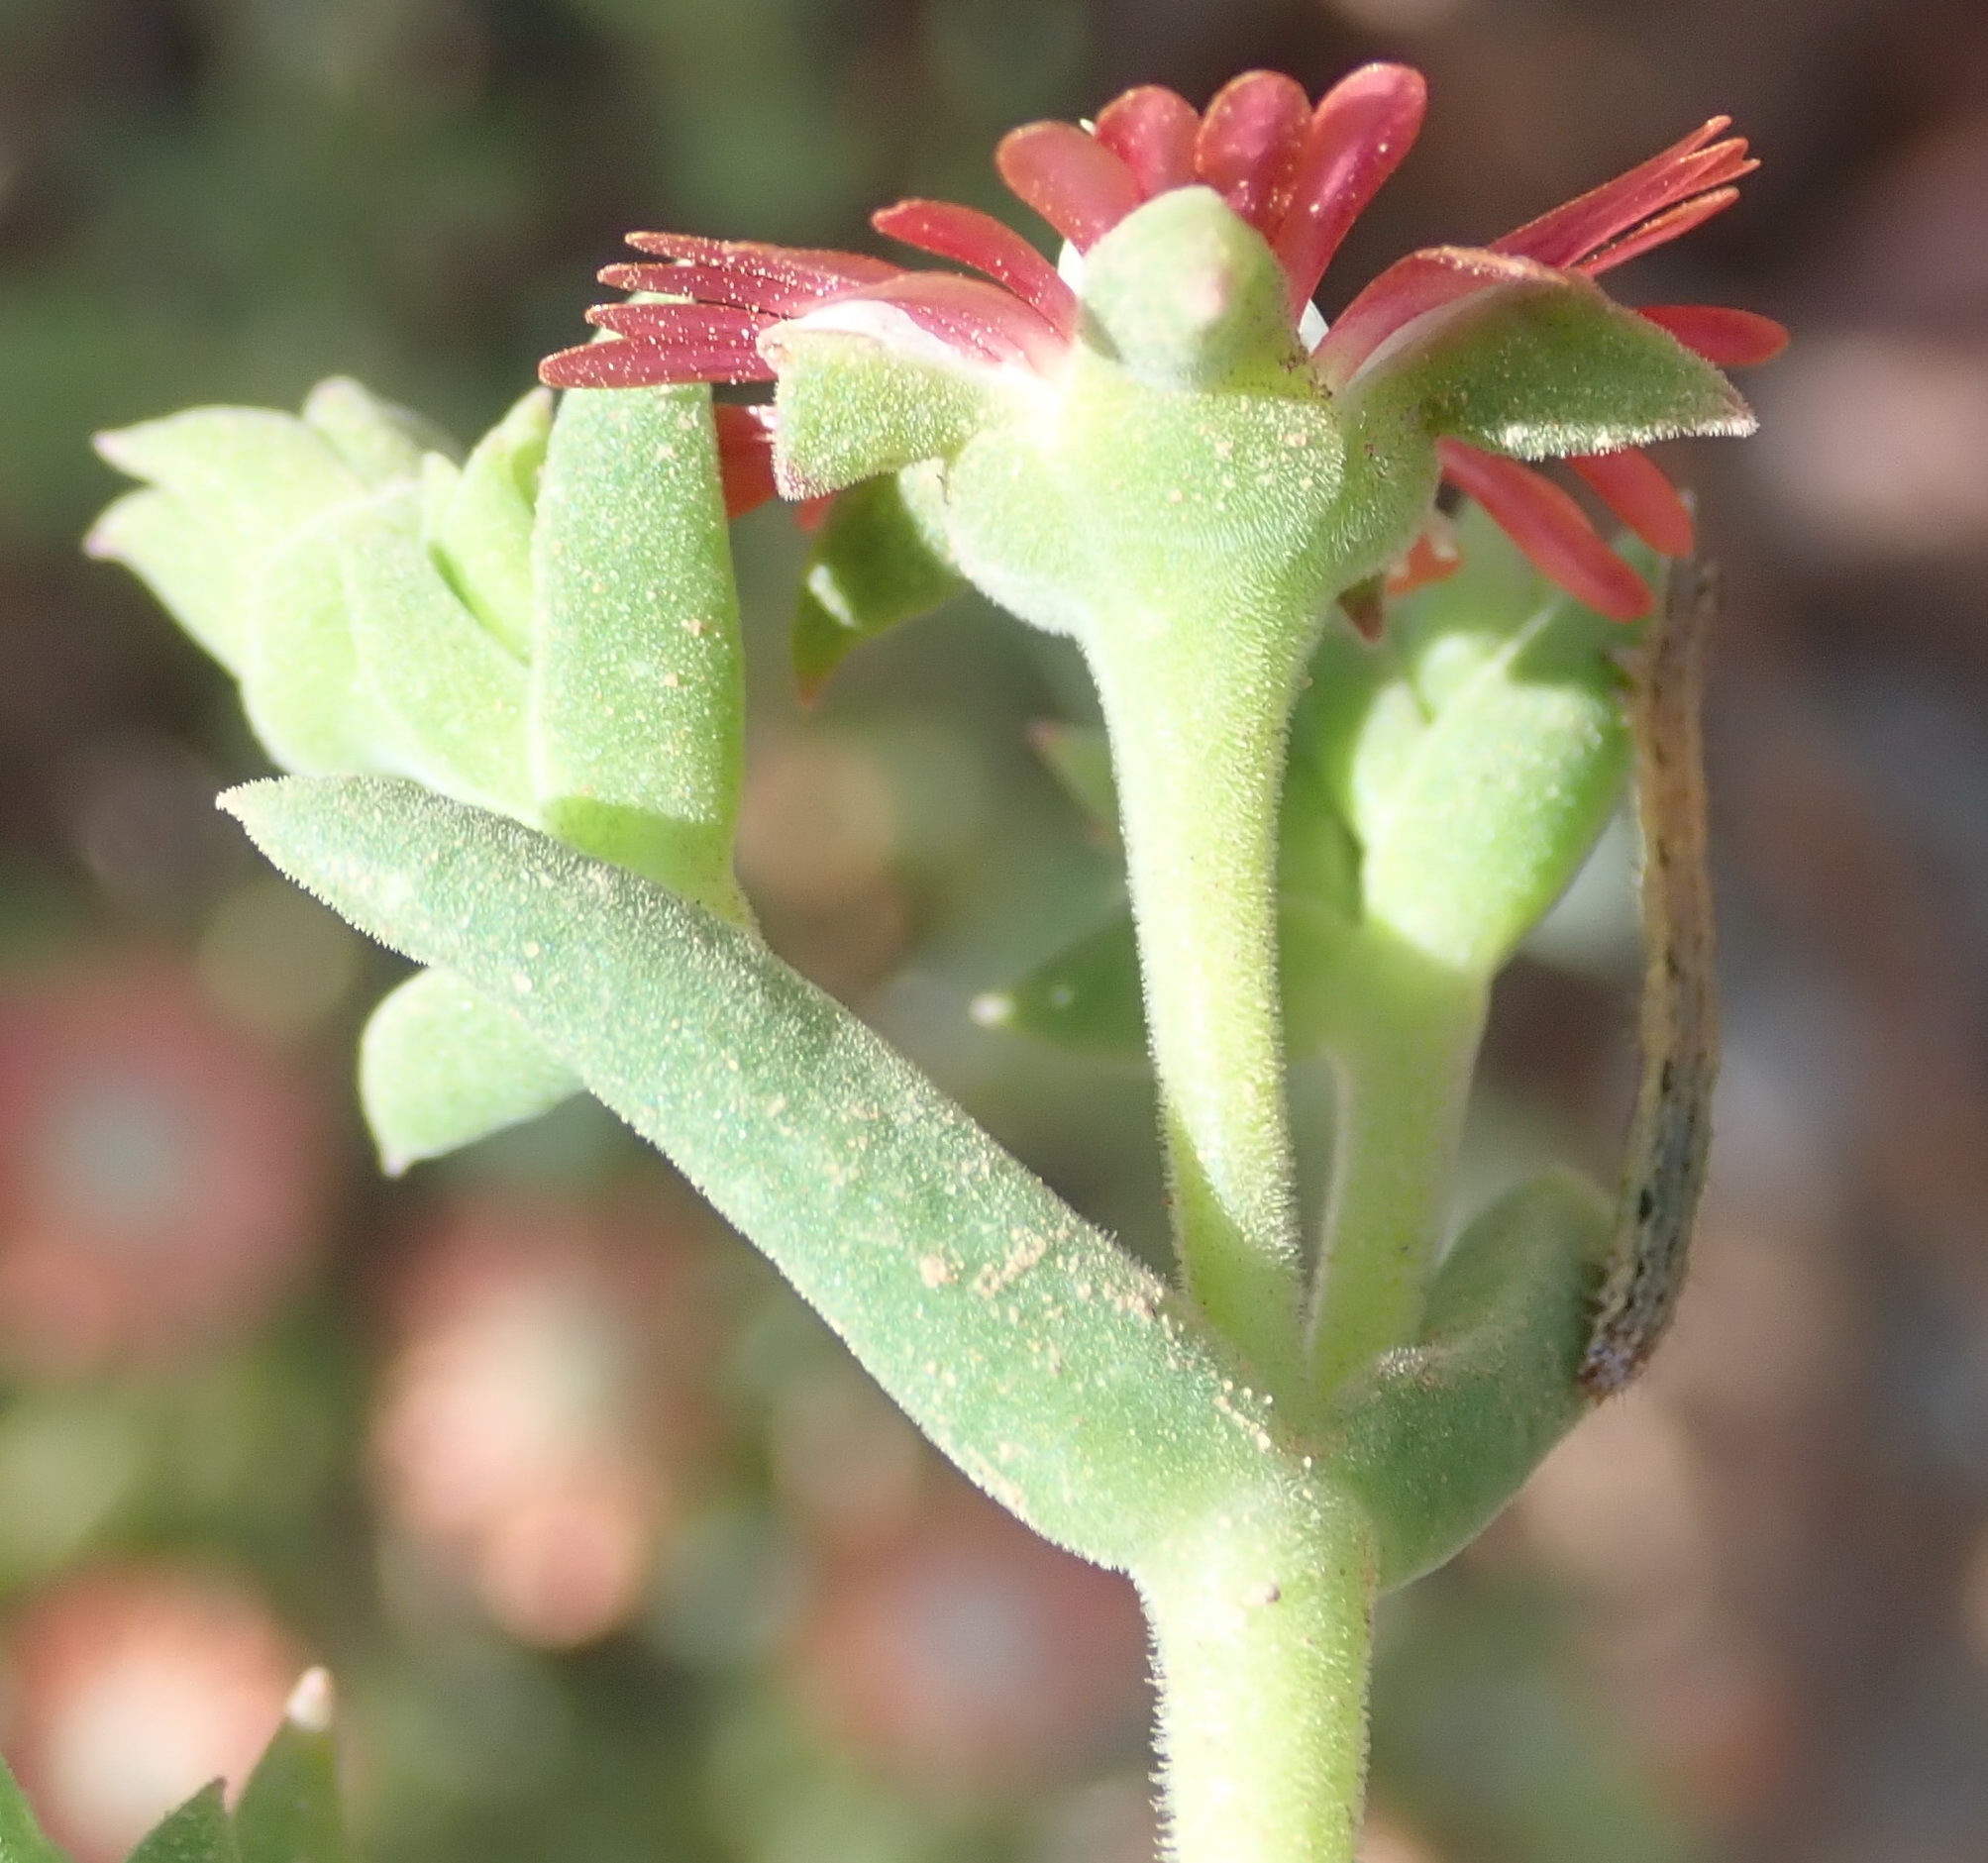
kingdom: Plantae
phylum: Tracheophyta
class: Magnoliopsida
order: Caryophyllales
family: Aizoaceae
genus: Mestoklema
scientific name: Mestoklema tuberosum
